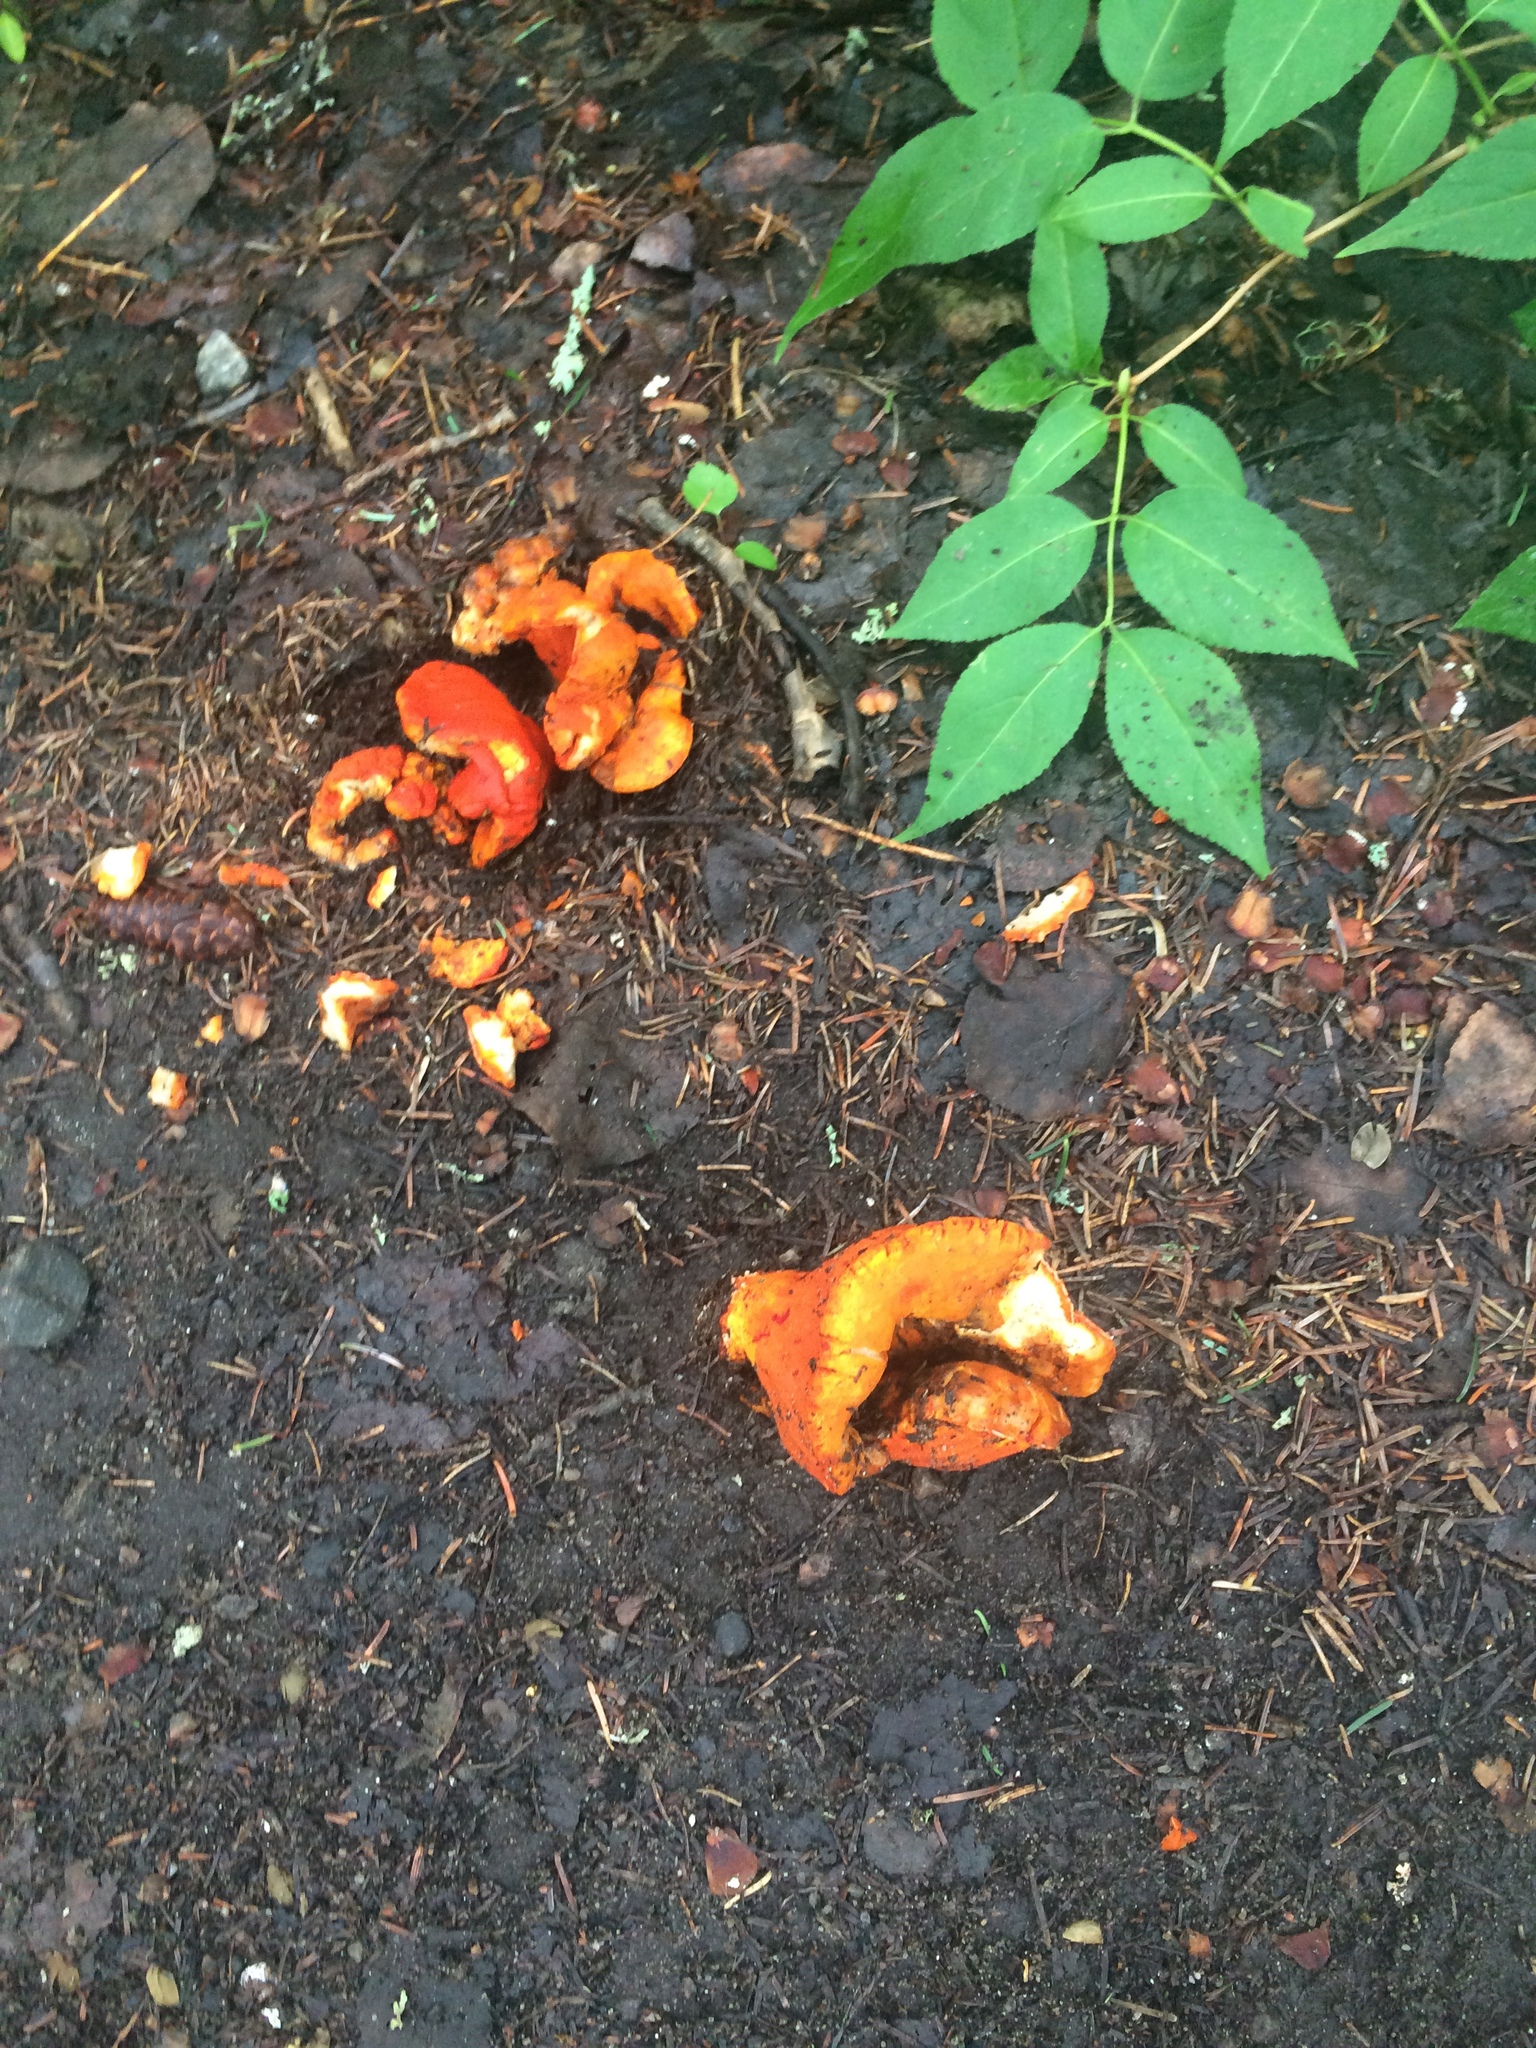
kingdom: Fungi
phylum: Ascomycota
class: Sordariomycetes
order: Hypocreales
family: Hypocreaceae
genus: Hypomyces
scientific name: Hypomyces lactifluorum
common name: Lobster mushroom
